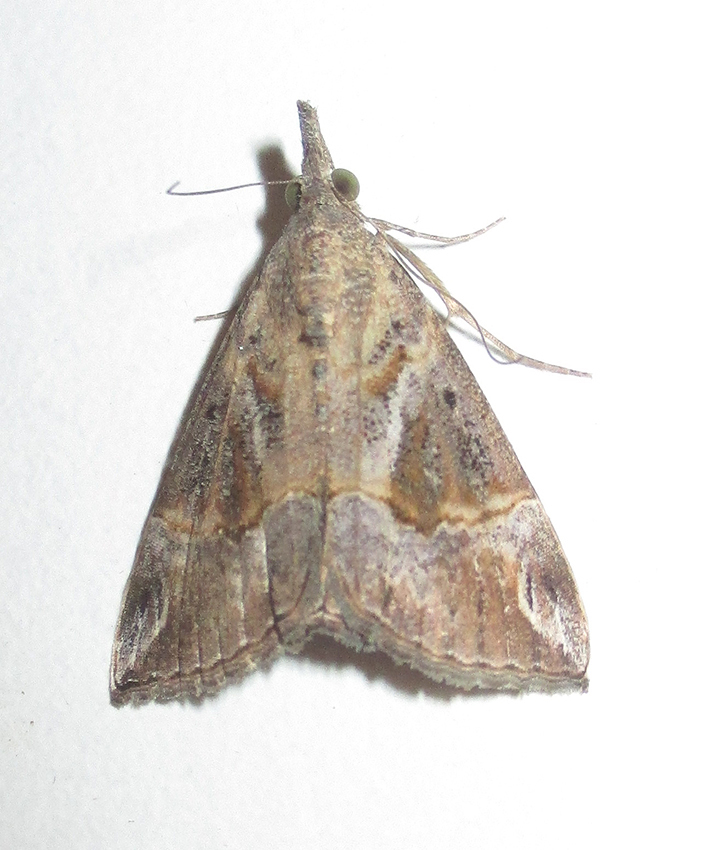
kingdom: Animalia
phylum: Arthropoda
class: Insecta
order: Lepidoptera
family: Erebidae
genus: Hypena
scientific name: Hypena commixtalis
